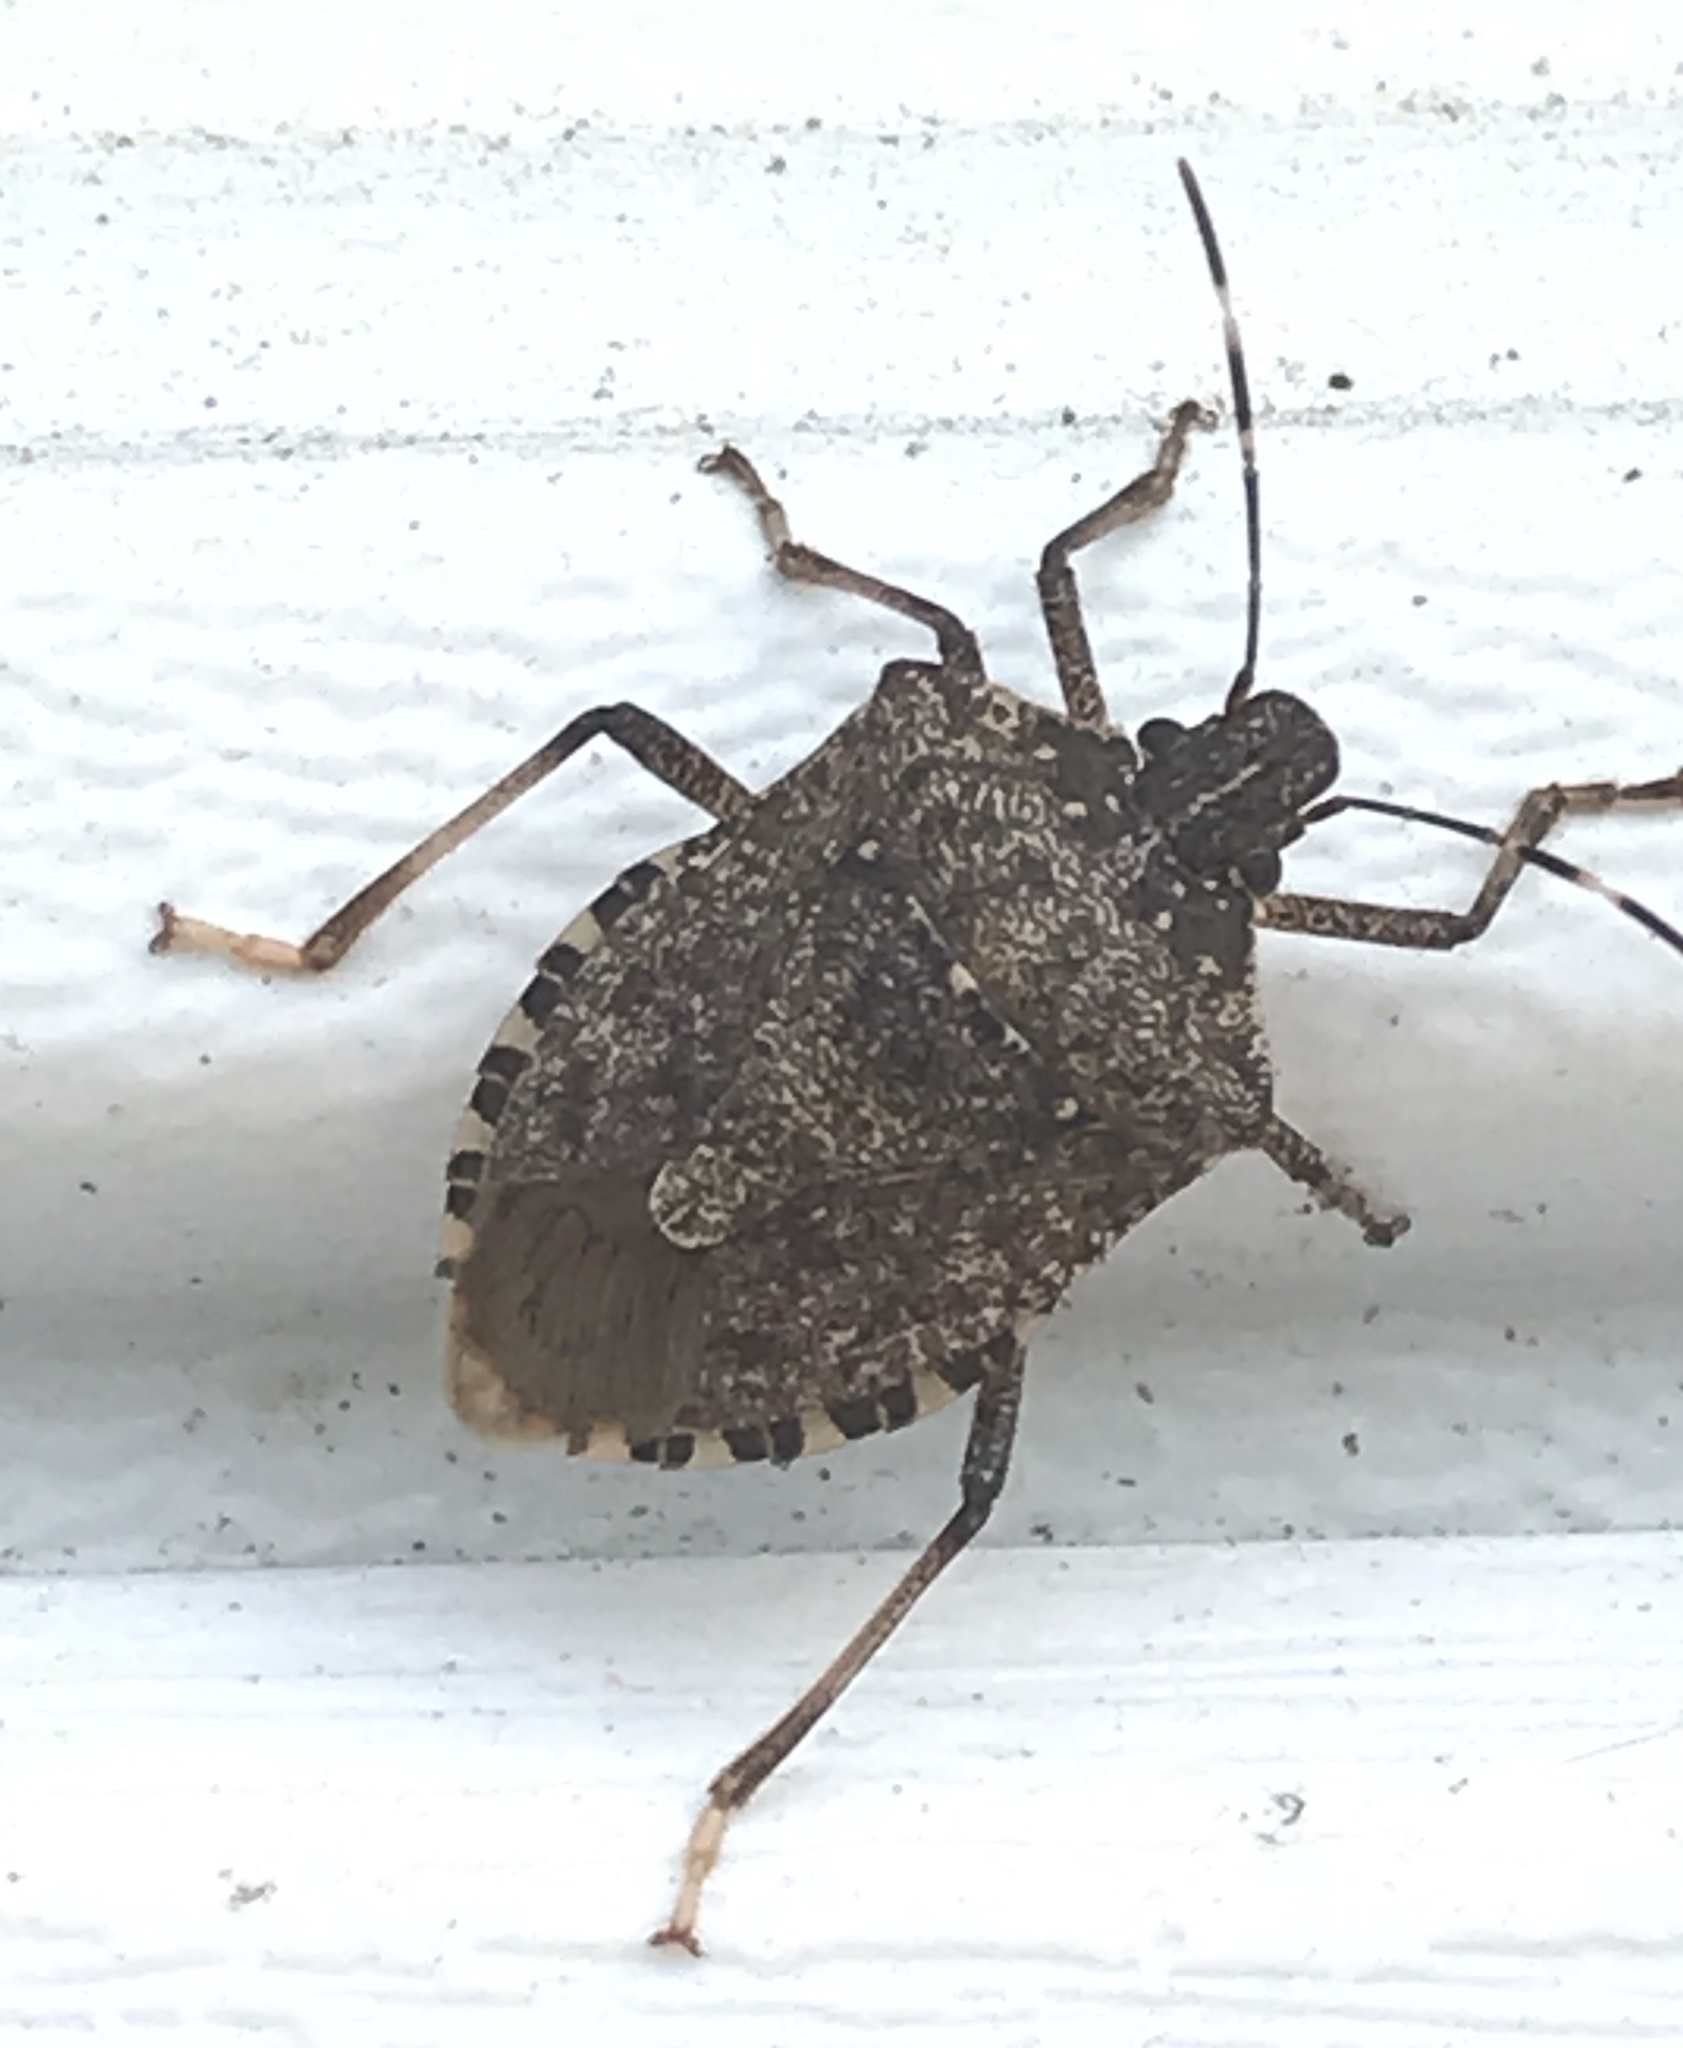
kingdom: Animalia
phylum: Arthropoda
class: Insecta
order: Hemiptera
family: Pentatomidae
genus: Halyomorpha
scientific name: Halyomorpha halys
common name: Brown marmorated stink bug
